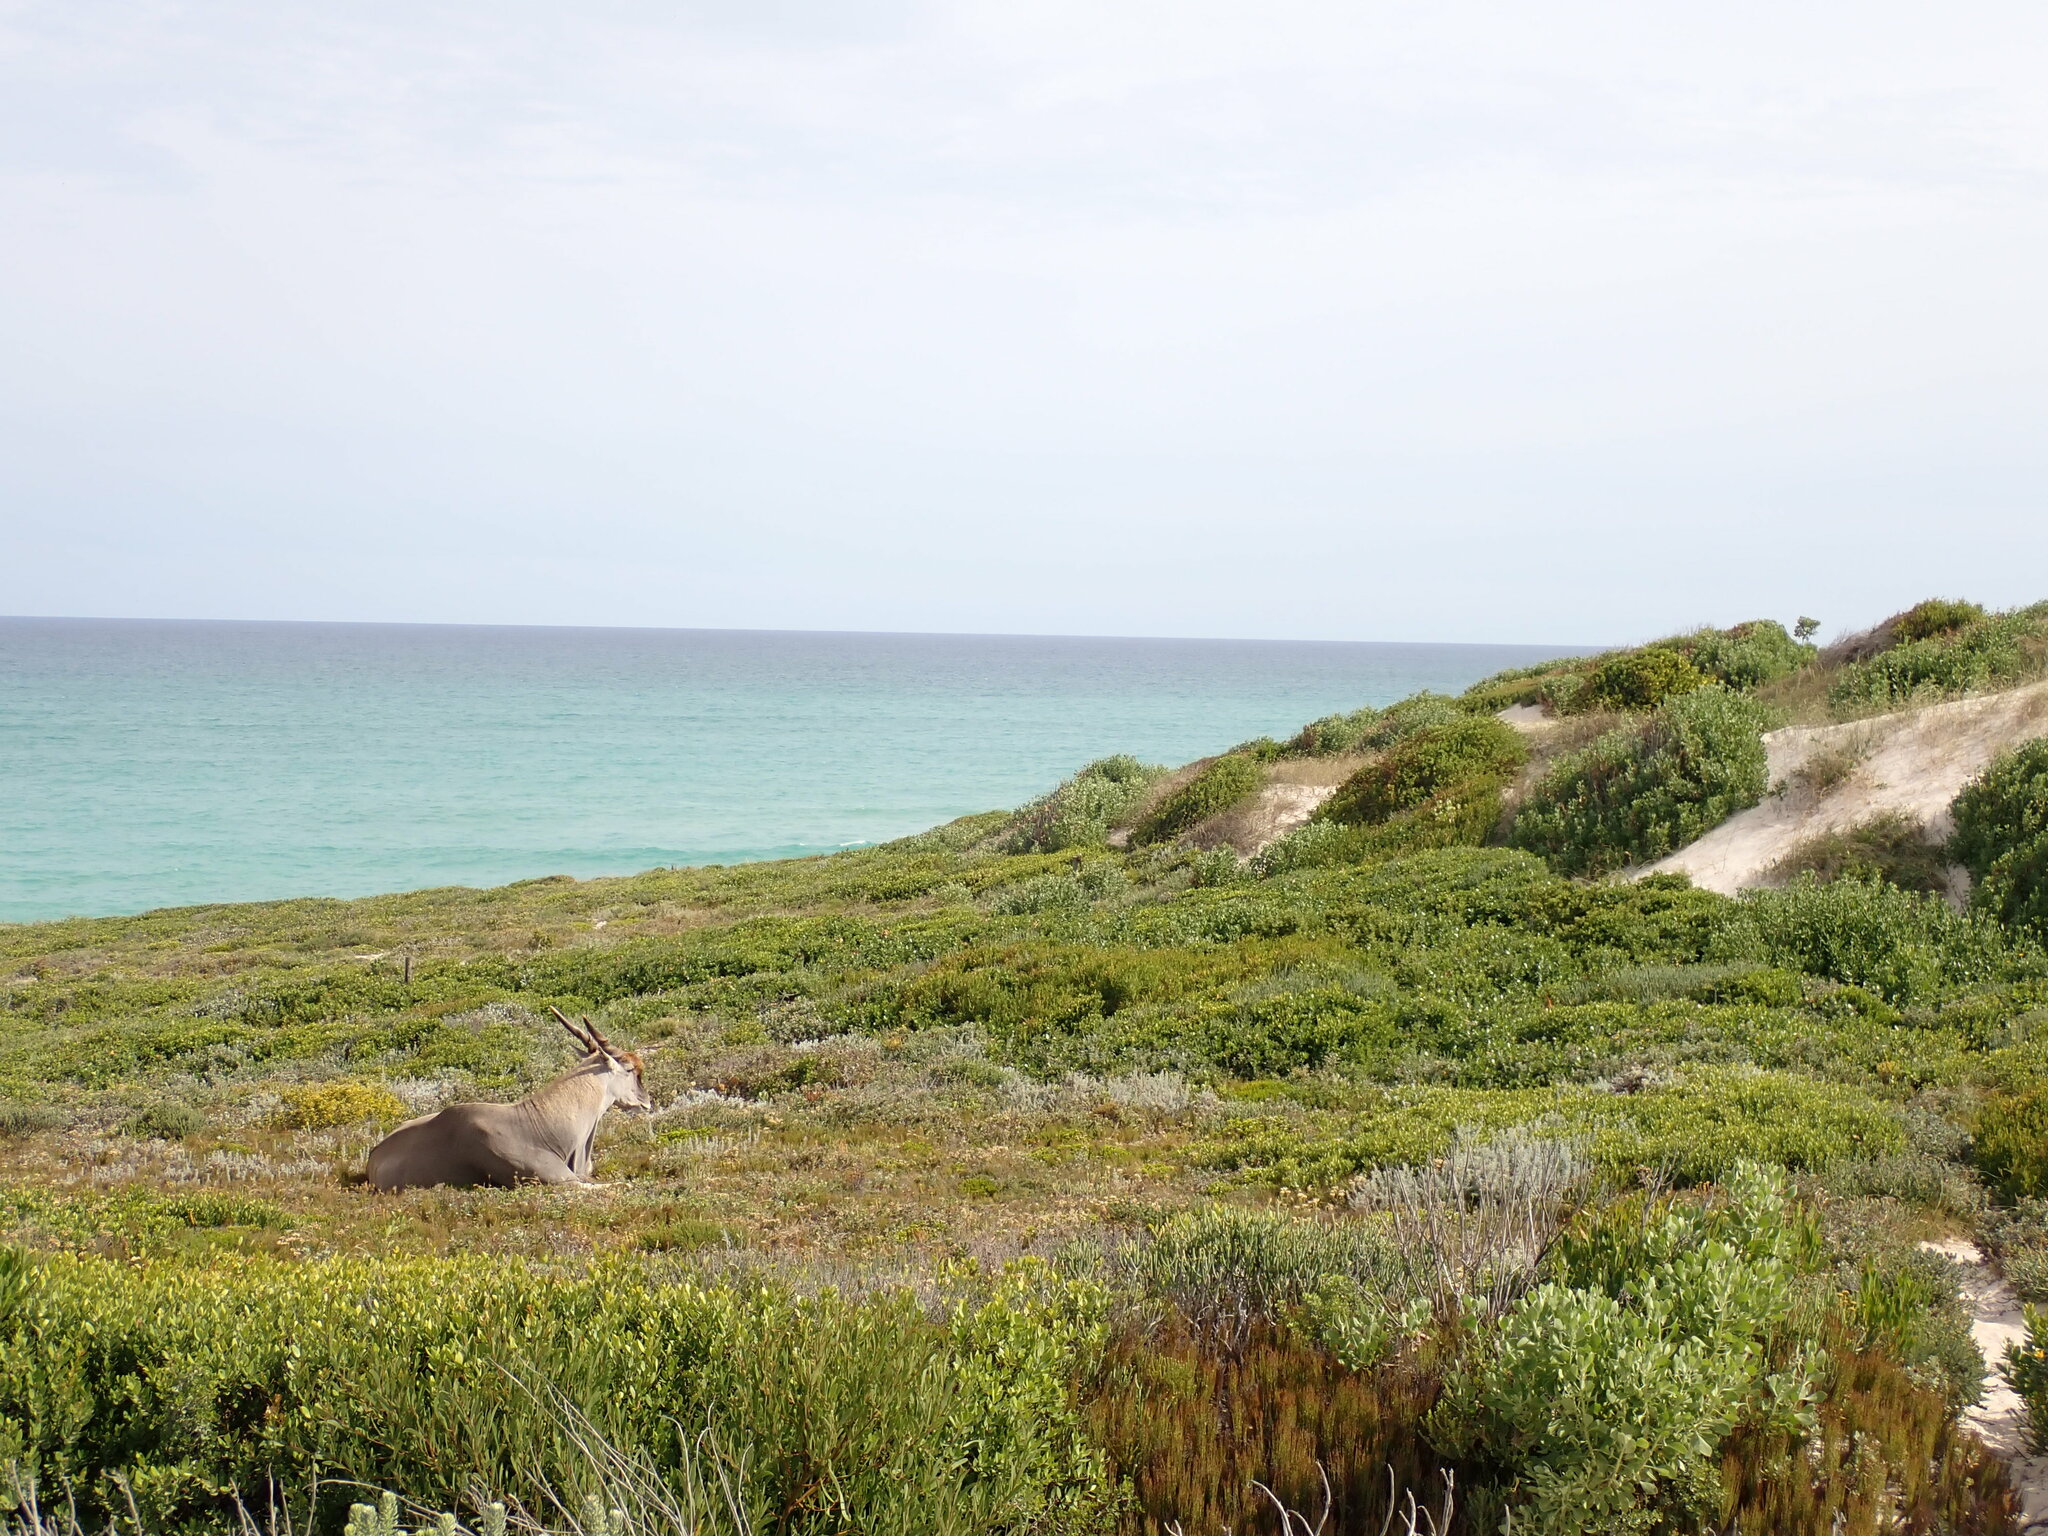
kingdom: Animalia
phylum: Chordata
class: Mammalia
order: Artiodactyla
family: Bovidae
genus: Taurotragus
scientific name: Taurotragus oryx
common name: Common eland
